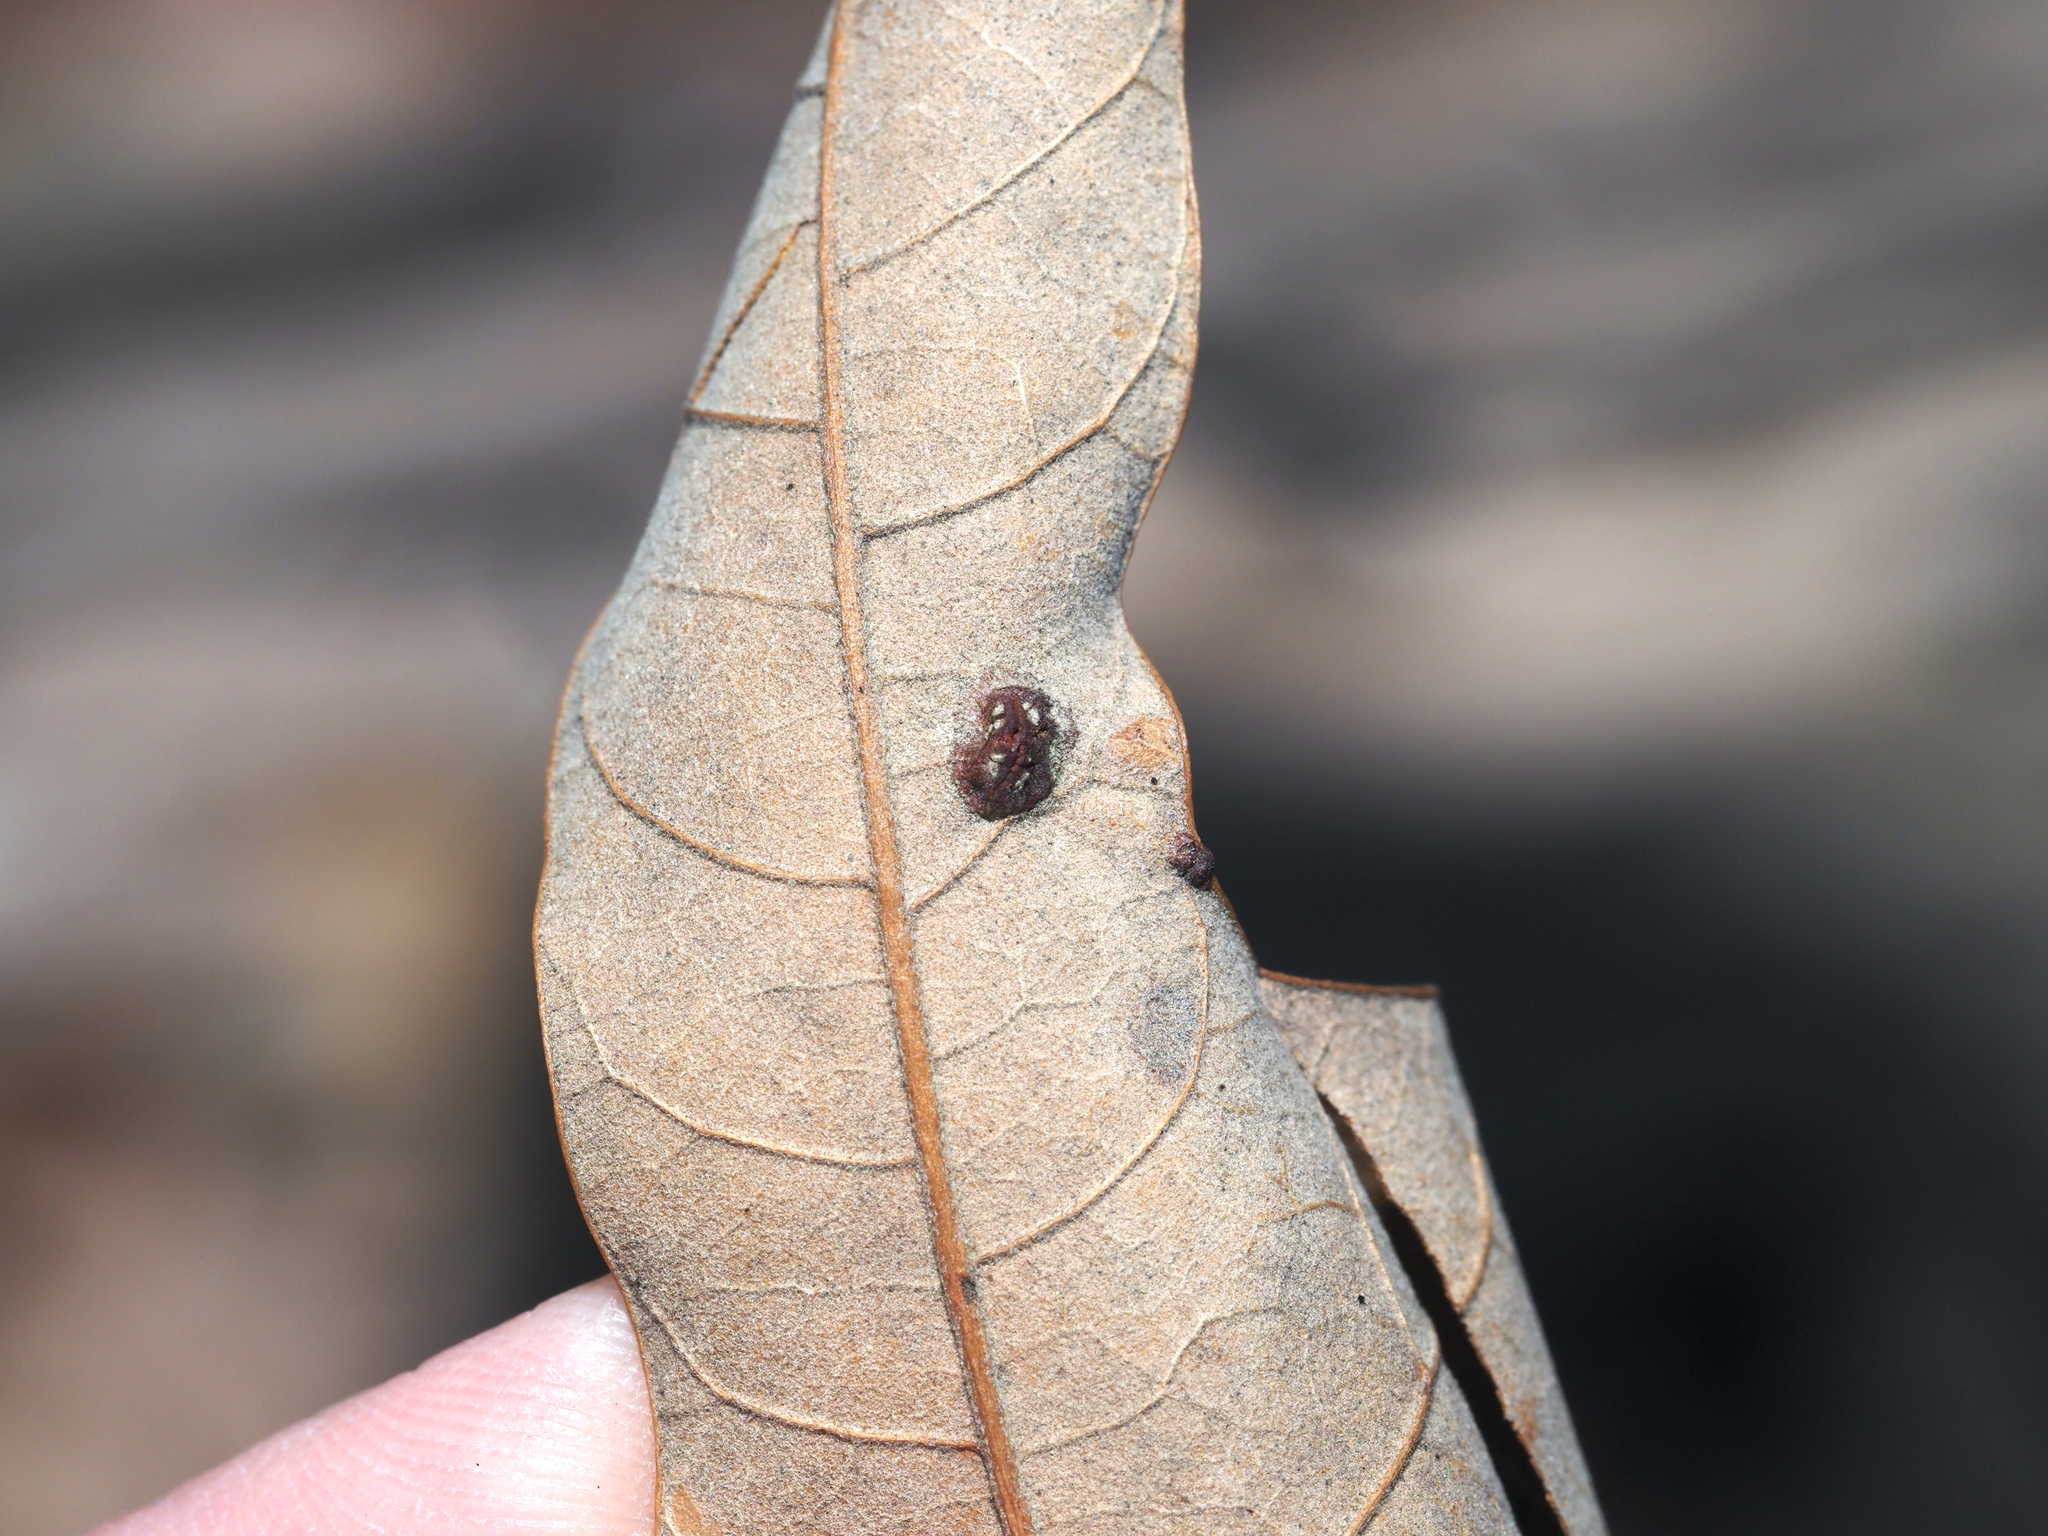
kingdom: Animalia
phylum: Arthropoda
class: Insecta
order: Diptera
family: Cecidomyiidae
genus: Polystepha
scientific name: Polystepha symmetrica
